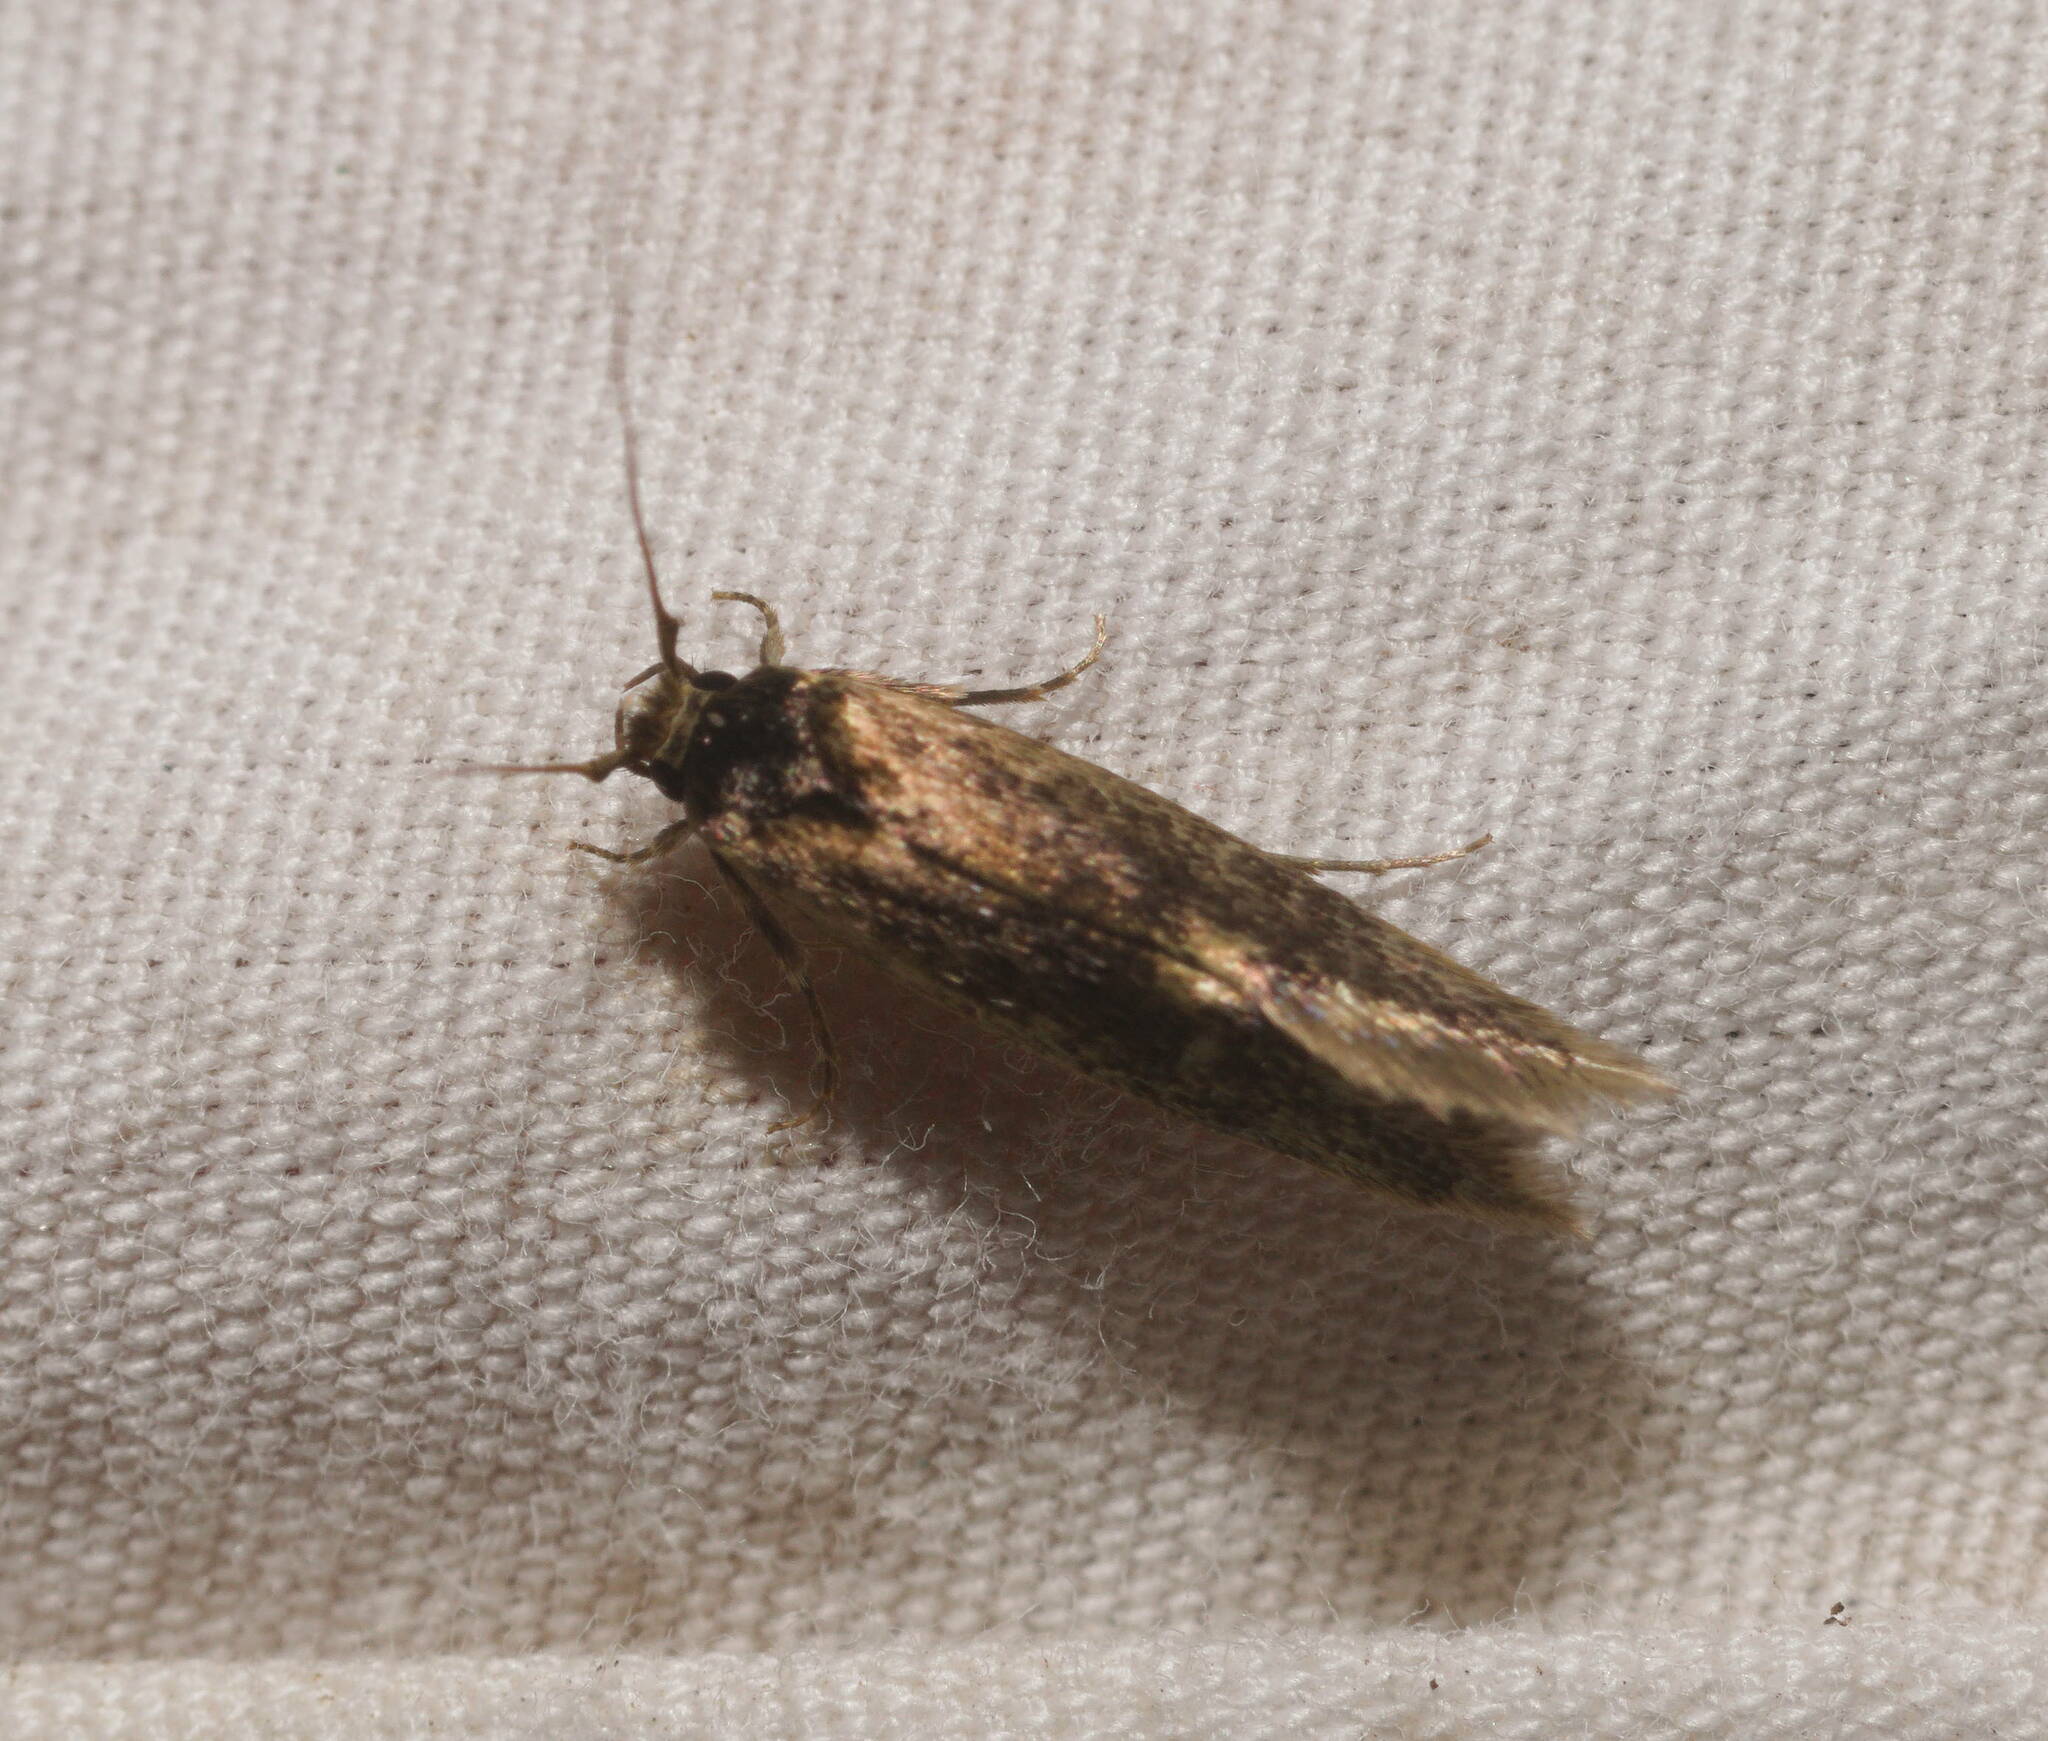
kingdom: Animalia
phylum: Arthropoda
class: Insecta
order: Lepidoptera
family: Tineidae
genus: Opogona
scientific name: Opogona omoscopa
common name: Moth
